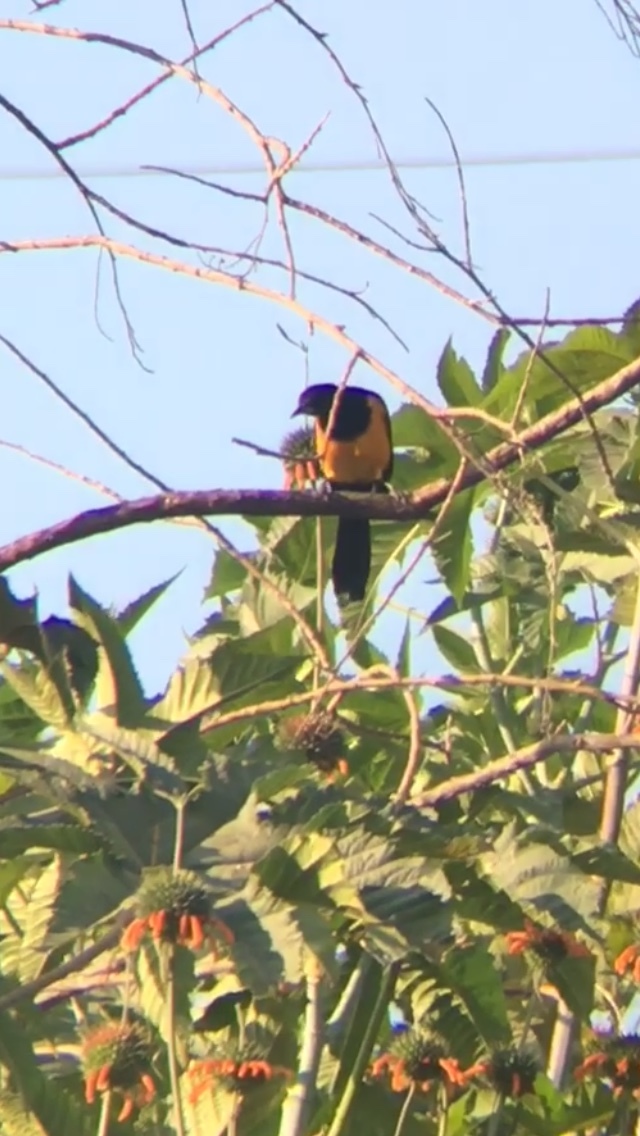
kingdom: Animalia
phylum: Chordata
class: Aves
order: Passeriformes
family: Icteridae
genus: Icterus
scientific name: Icterus wagleri
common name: Black-vented oriole
